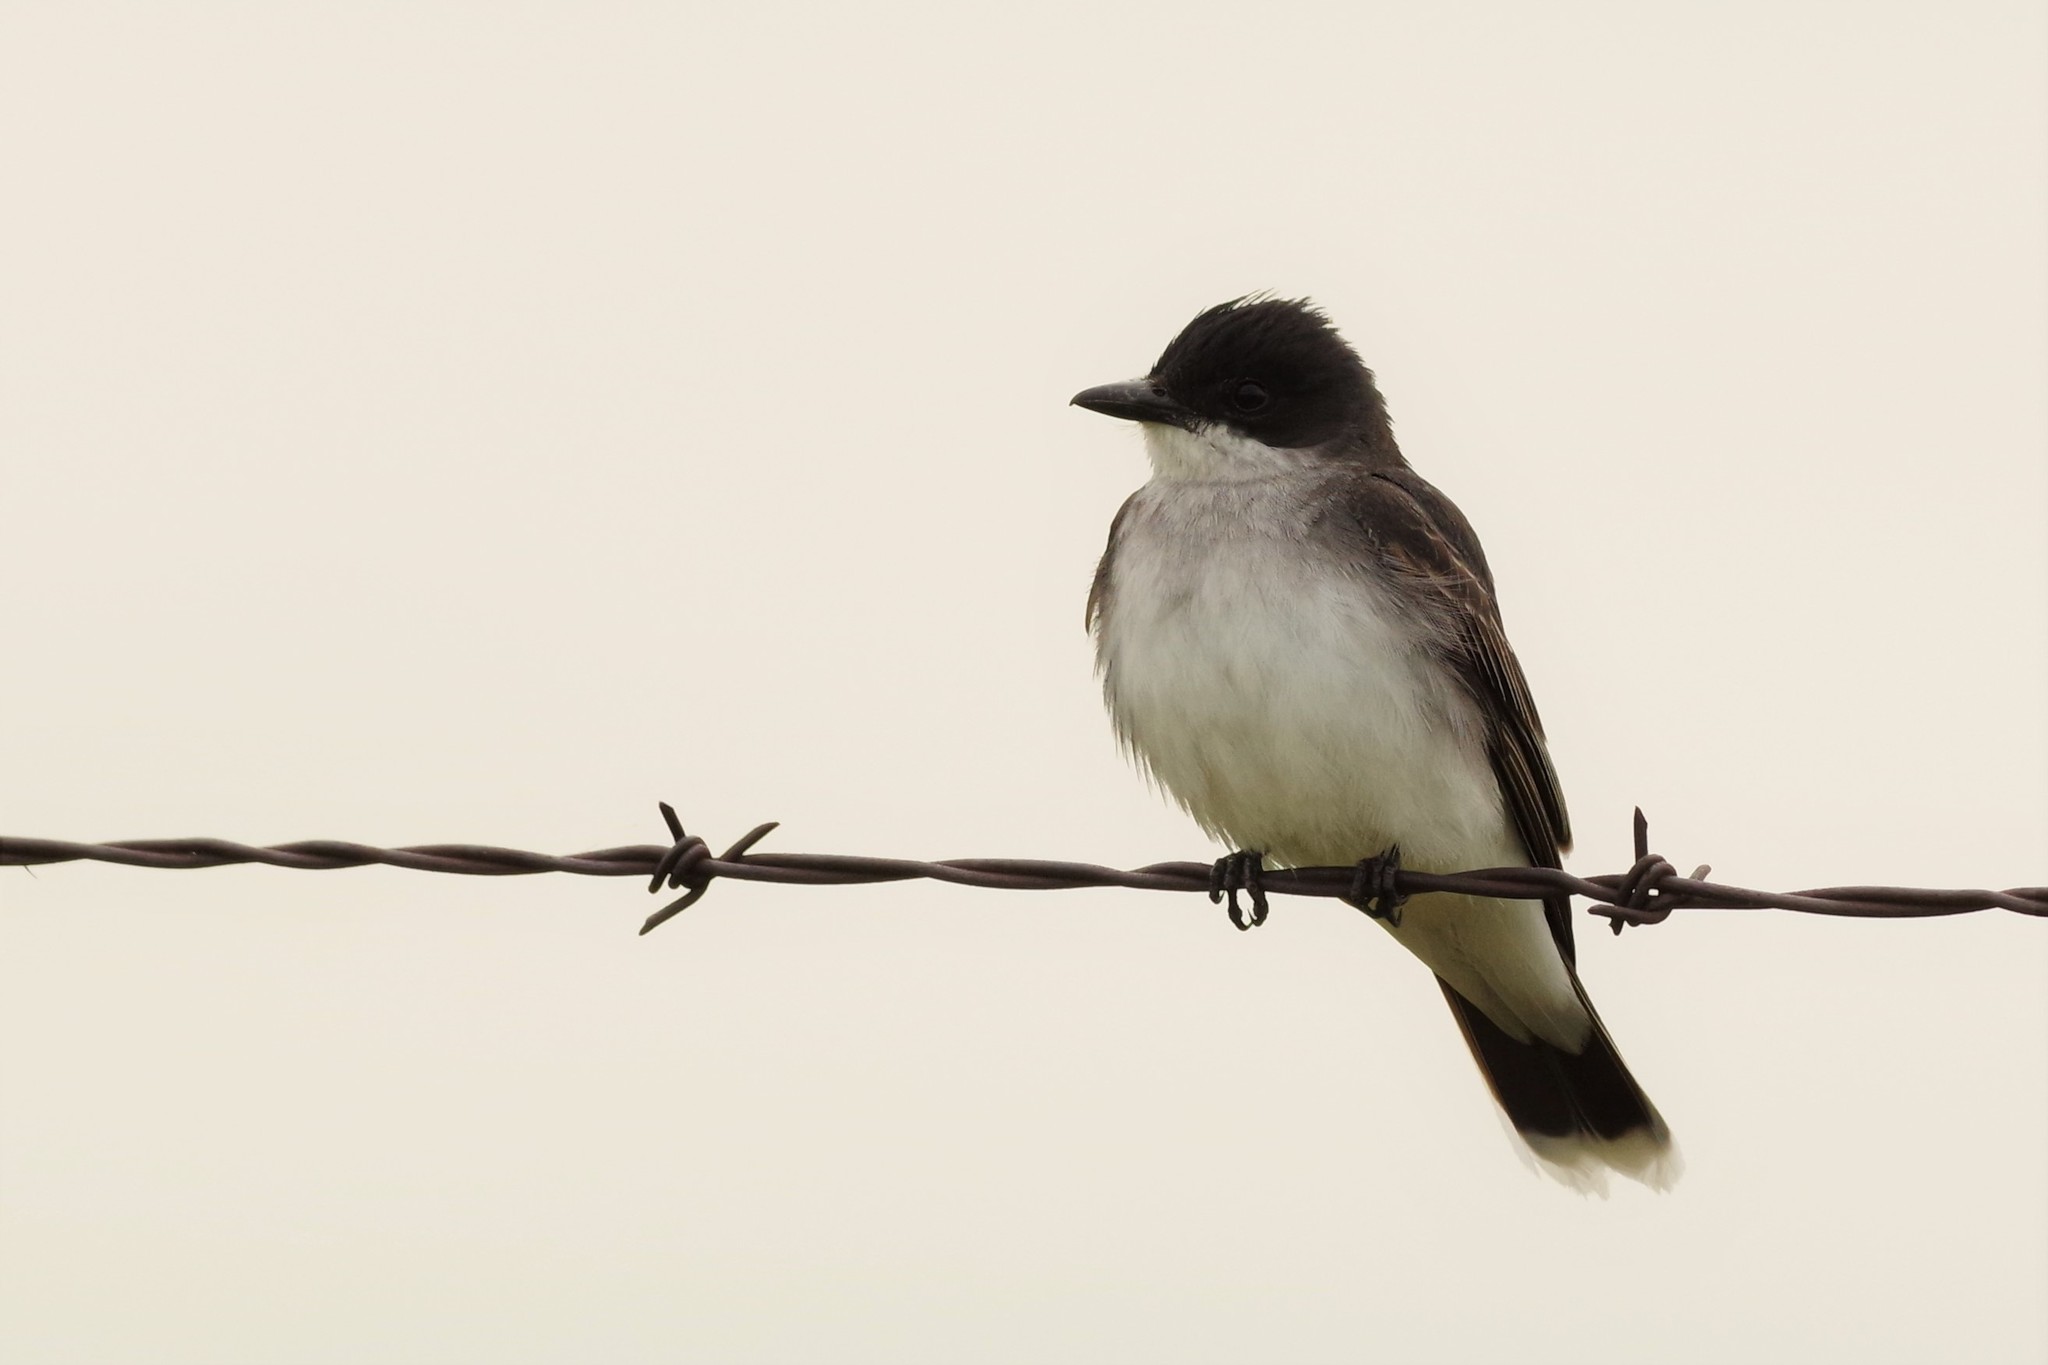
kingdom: Animalia
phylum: Chordata
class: Aves
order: Passeriformes
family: Tyrannidae
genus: Tyrannus
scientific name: Tyrannus tyrannus
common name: Eastern kingbird
